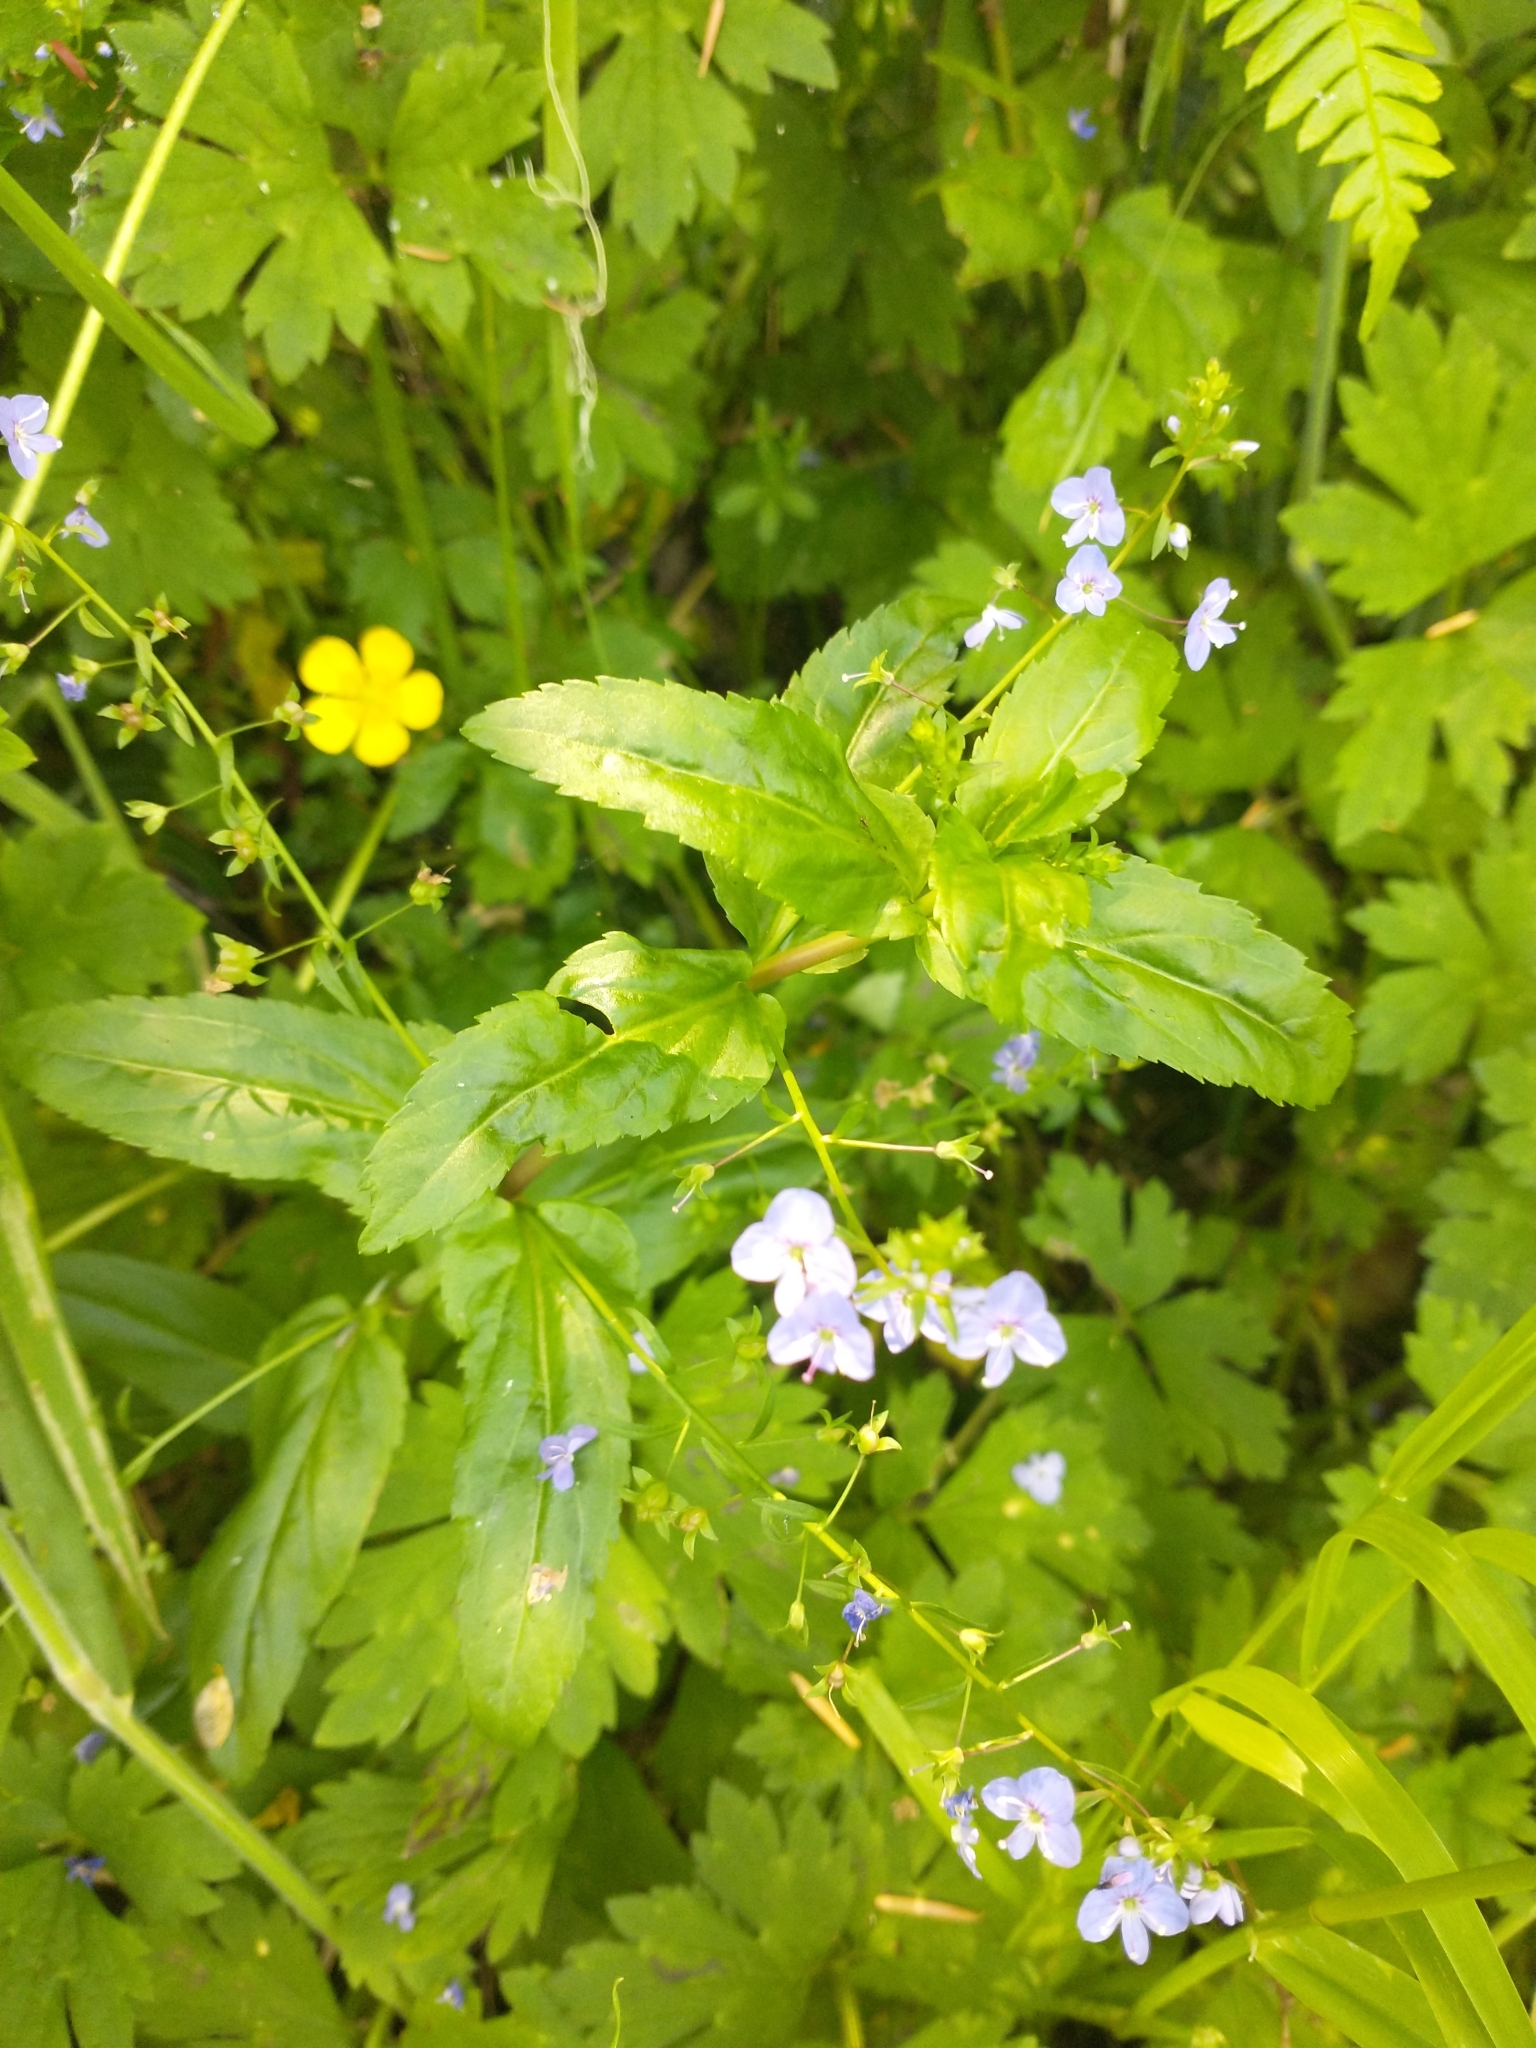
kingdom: Plantae
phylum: Tracheophyta
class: Magnoliopsida
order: Lamiales
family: Plantaginaceae
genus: Veronica
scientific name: Veronica americana
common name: American brooklime
